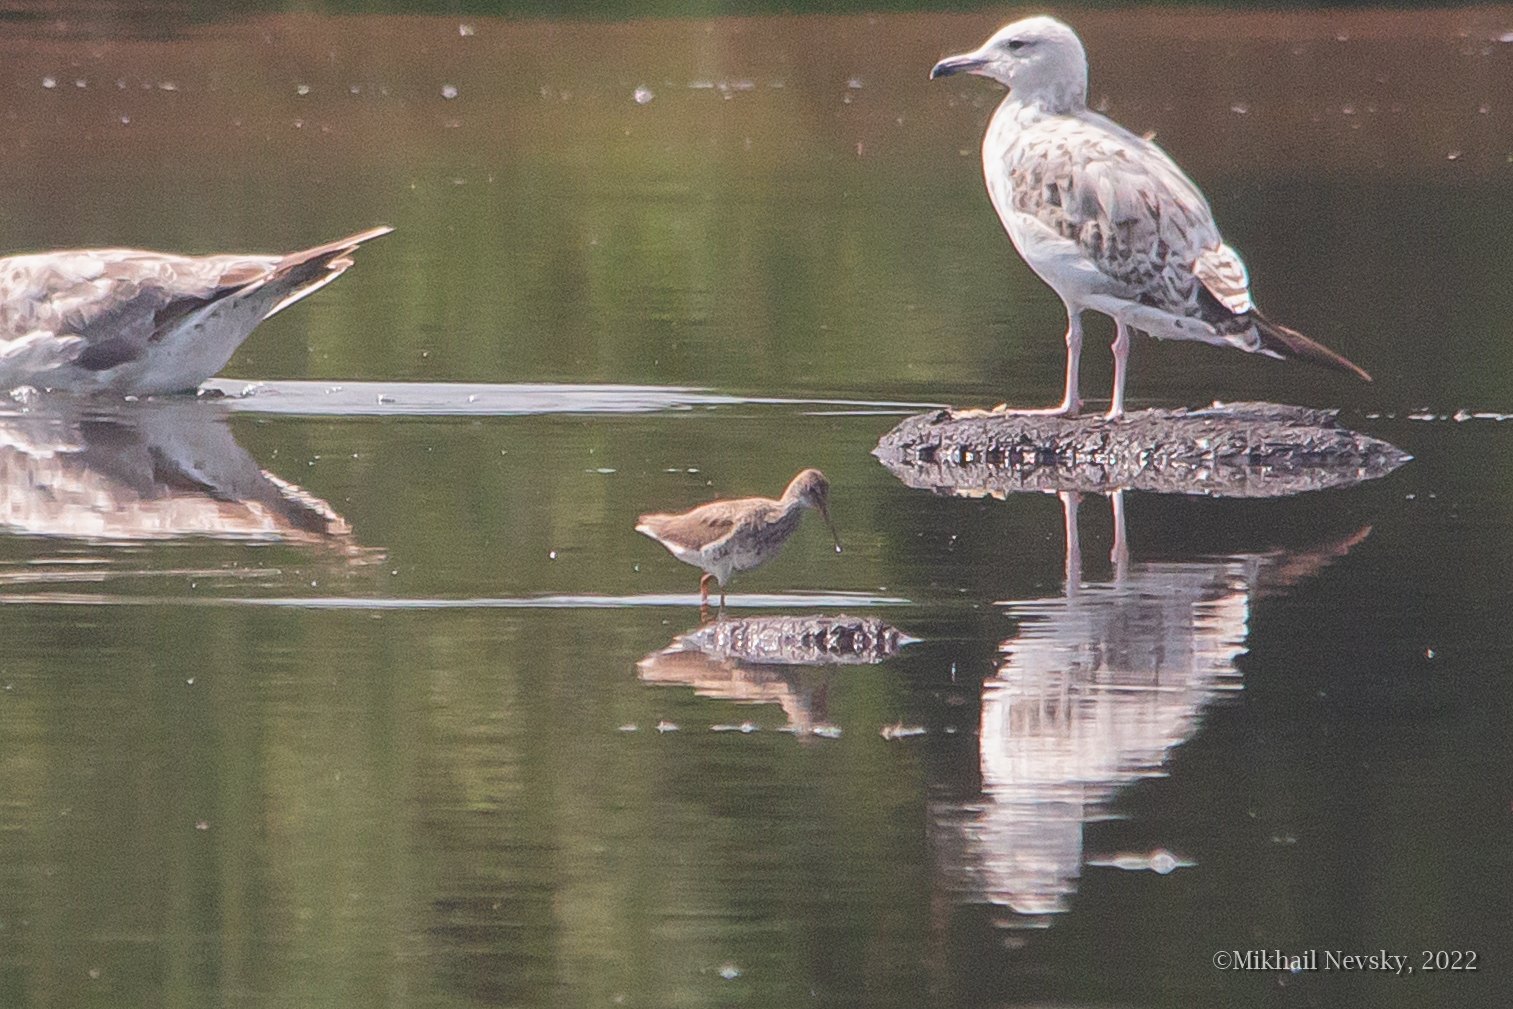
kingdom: Animalia
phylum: Chordata
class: Aves
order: Charadriiformes
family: Scolopacidae
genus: Tringa
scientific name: Tringa totanus
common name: Common redshank
